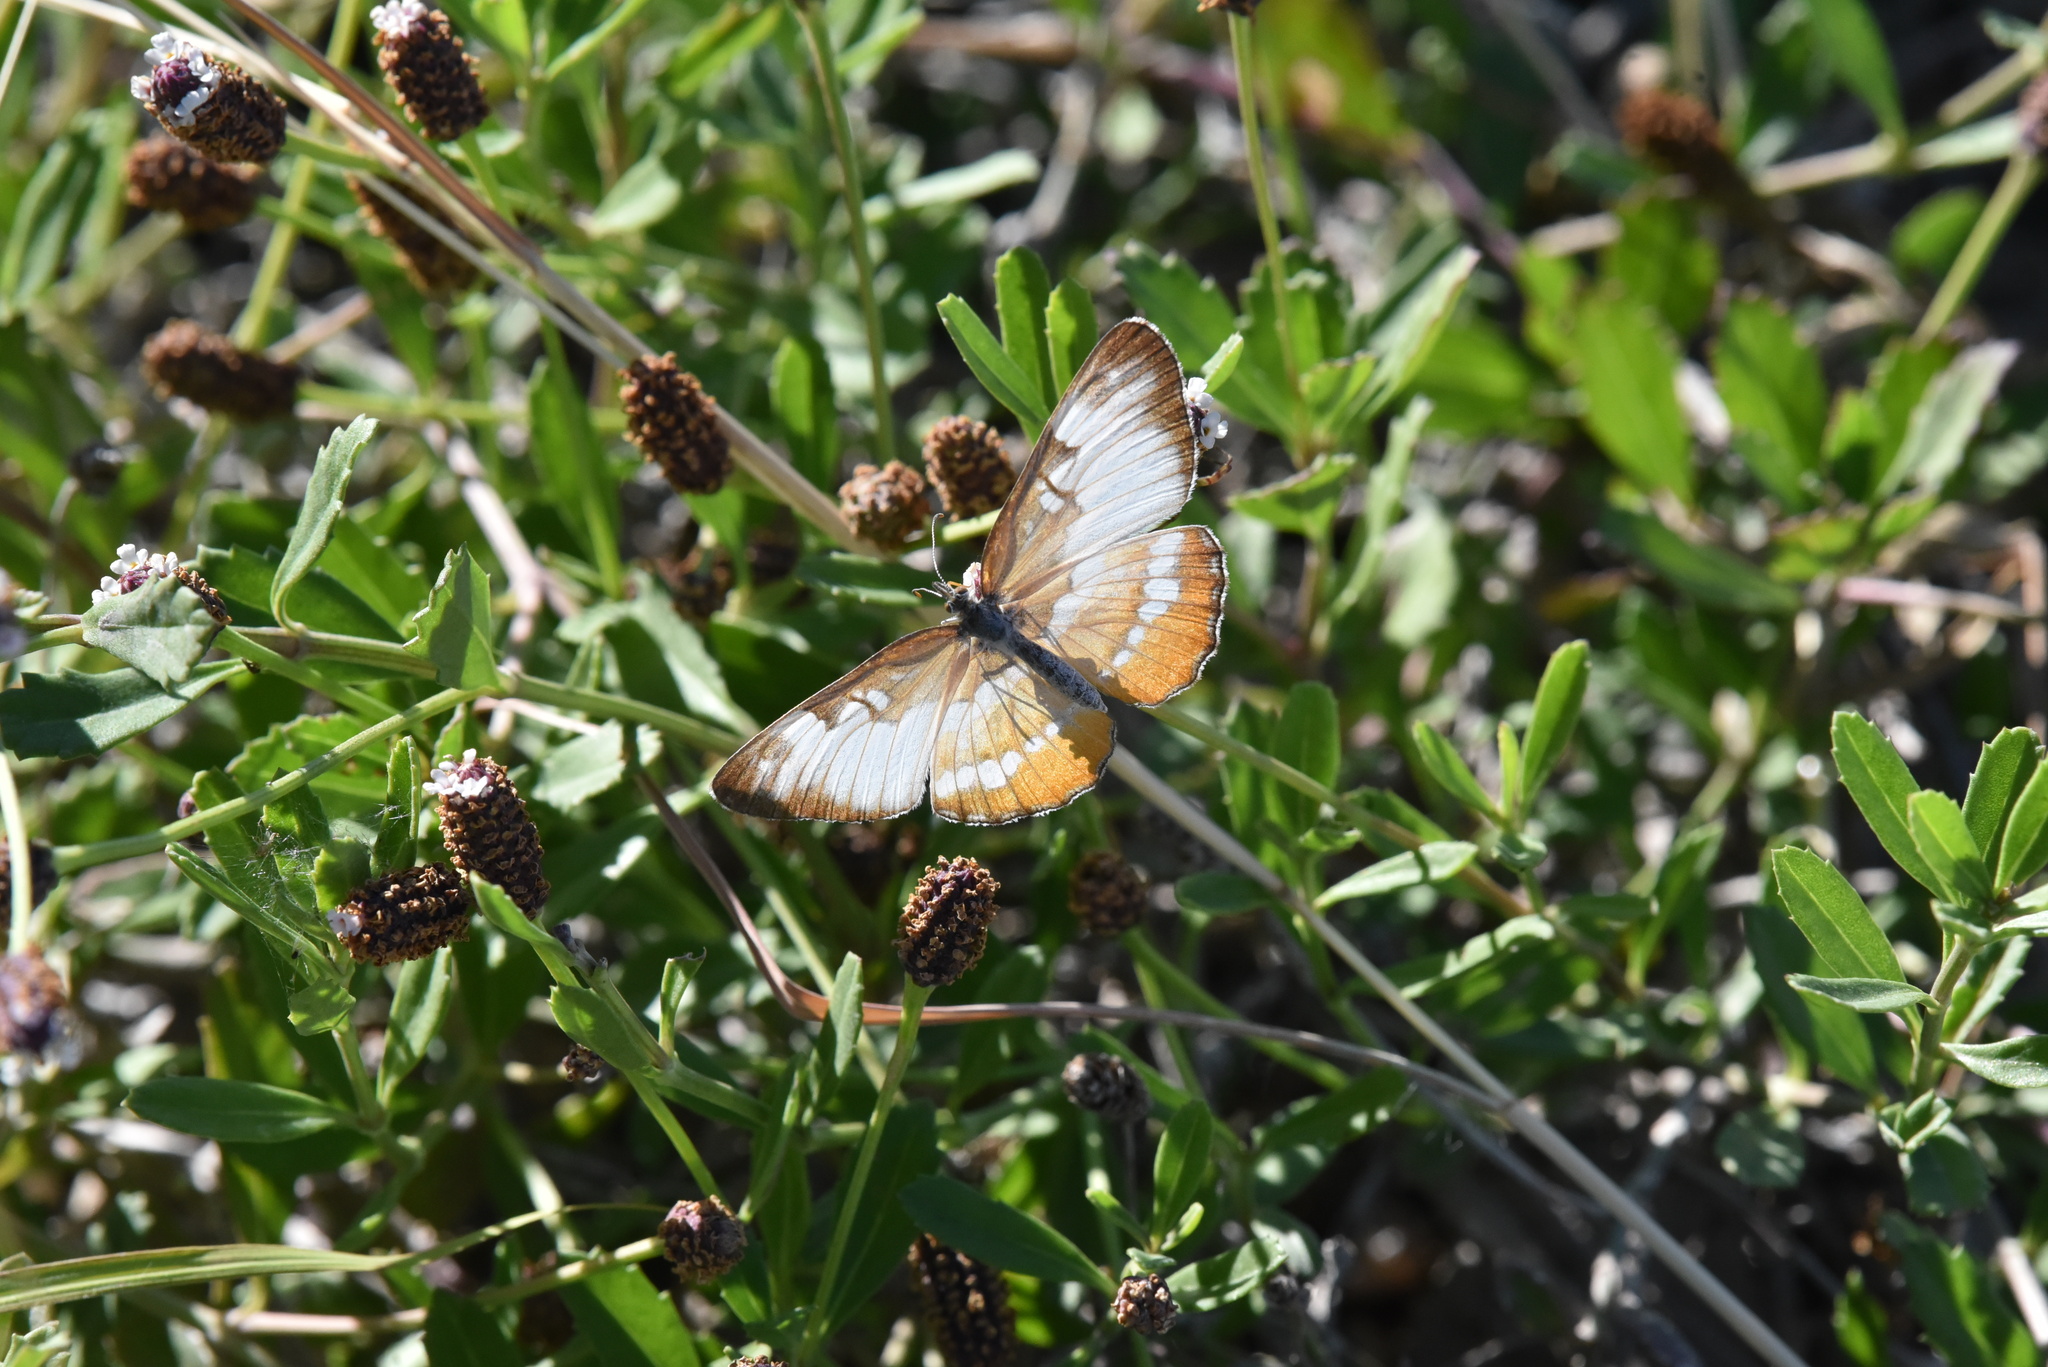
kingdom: Animalia
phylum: Arthropoda
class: Insecta
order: Lepidoptera
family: Nymphalidae
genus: Mestra
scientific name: Mestra amymone
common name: Common mestra
